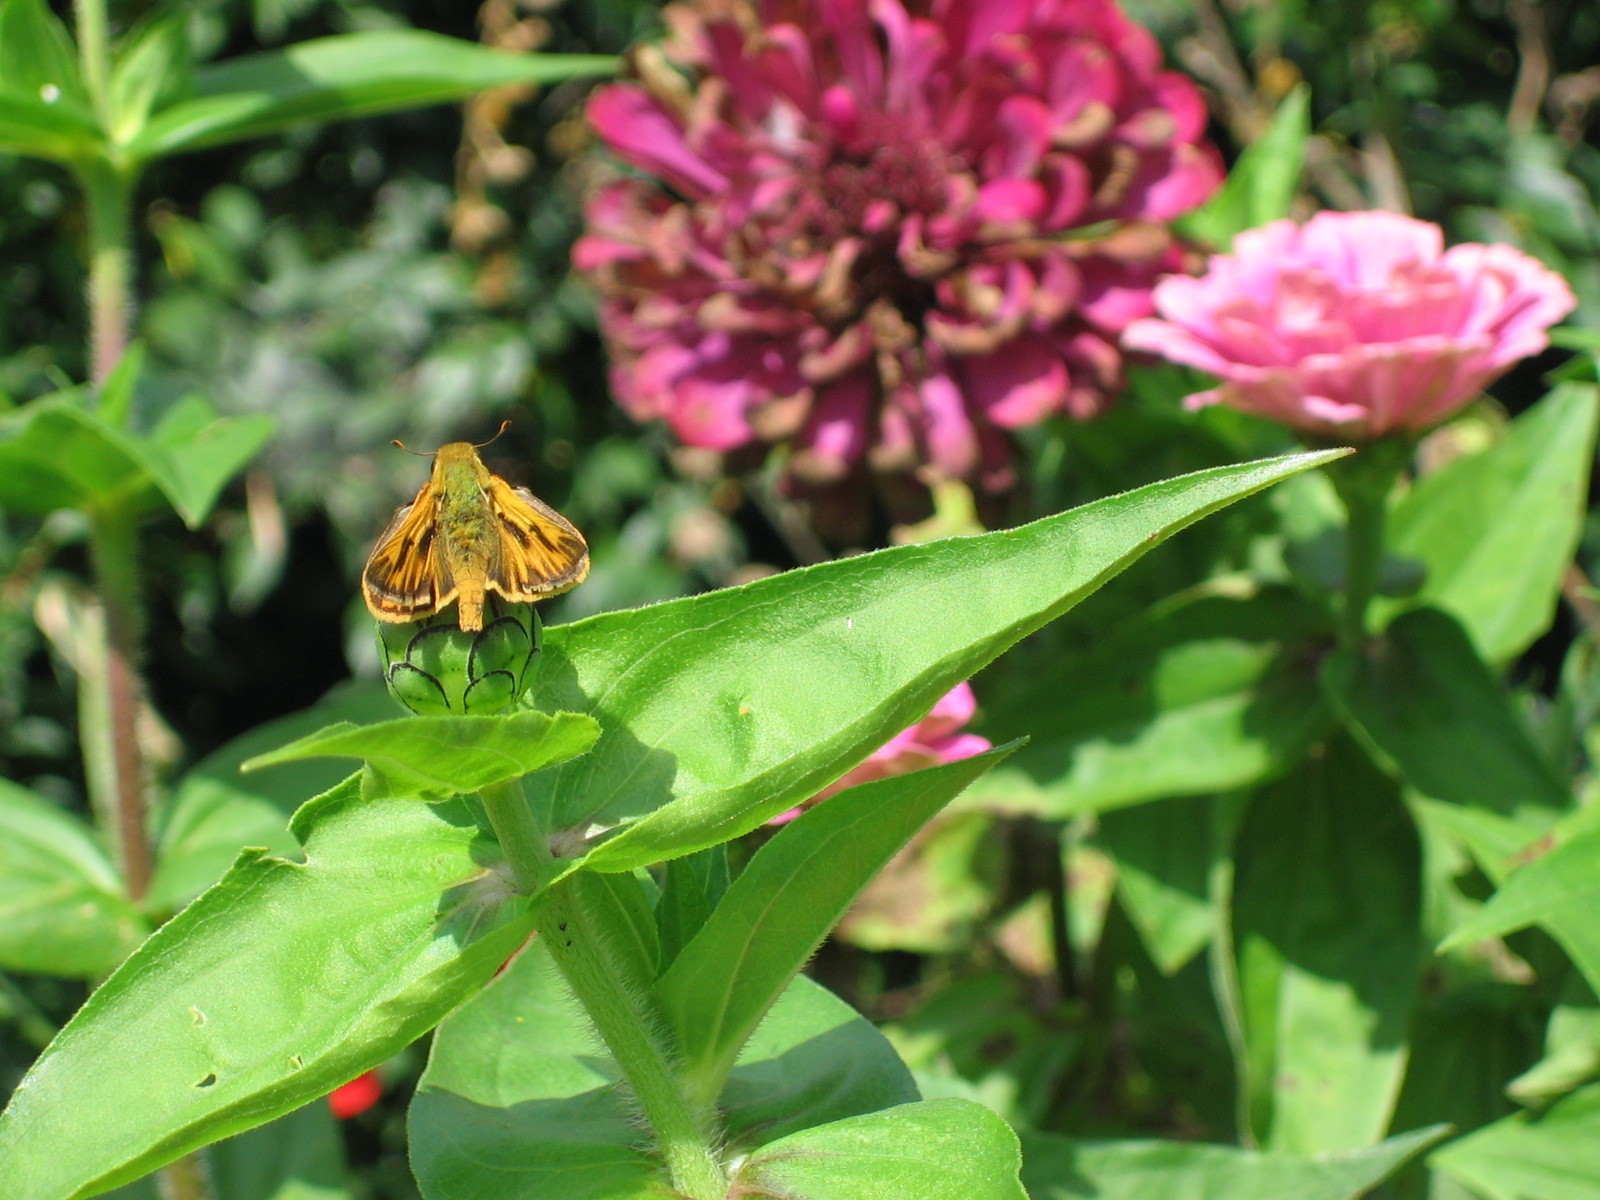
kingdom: Animalia
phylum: Arthropoda
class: Insecta
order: Lepidoptera
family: Hesperiidae
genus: Hylephila
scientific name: Hylephila phyleus
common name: Fiery skipper
